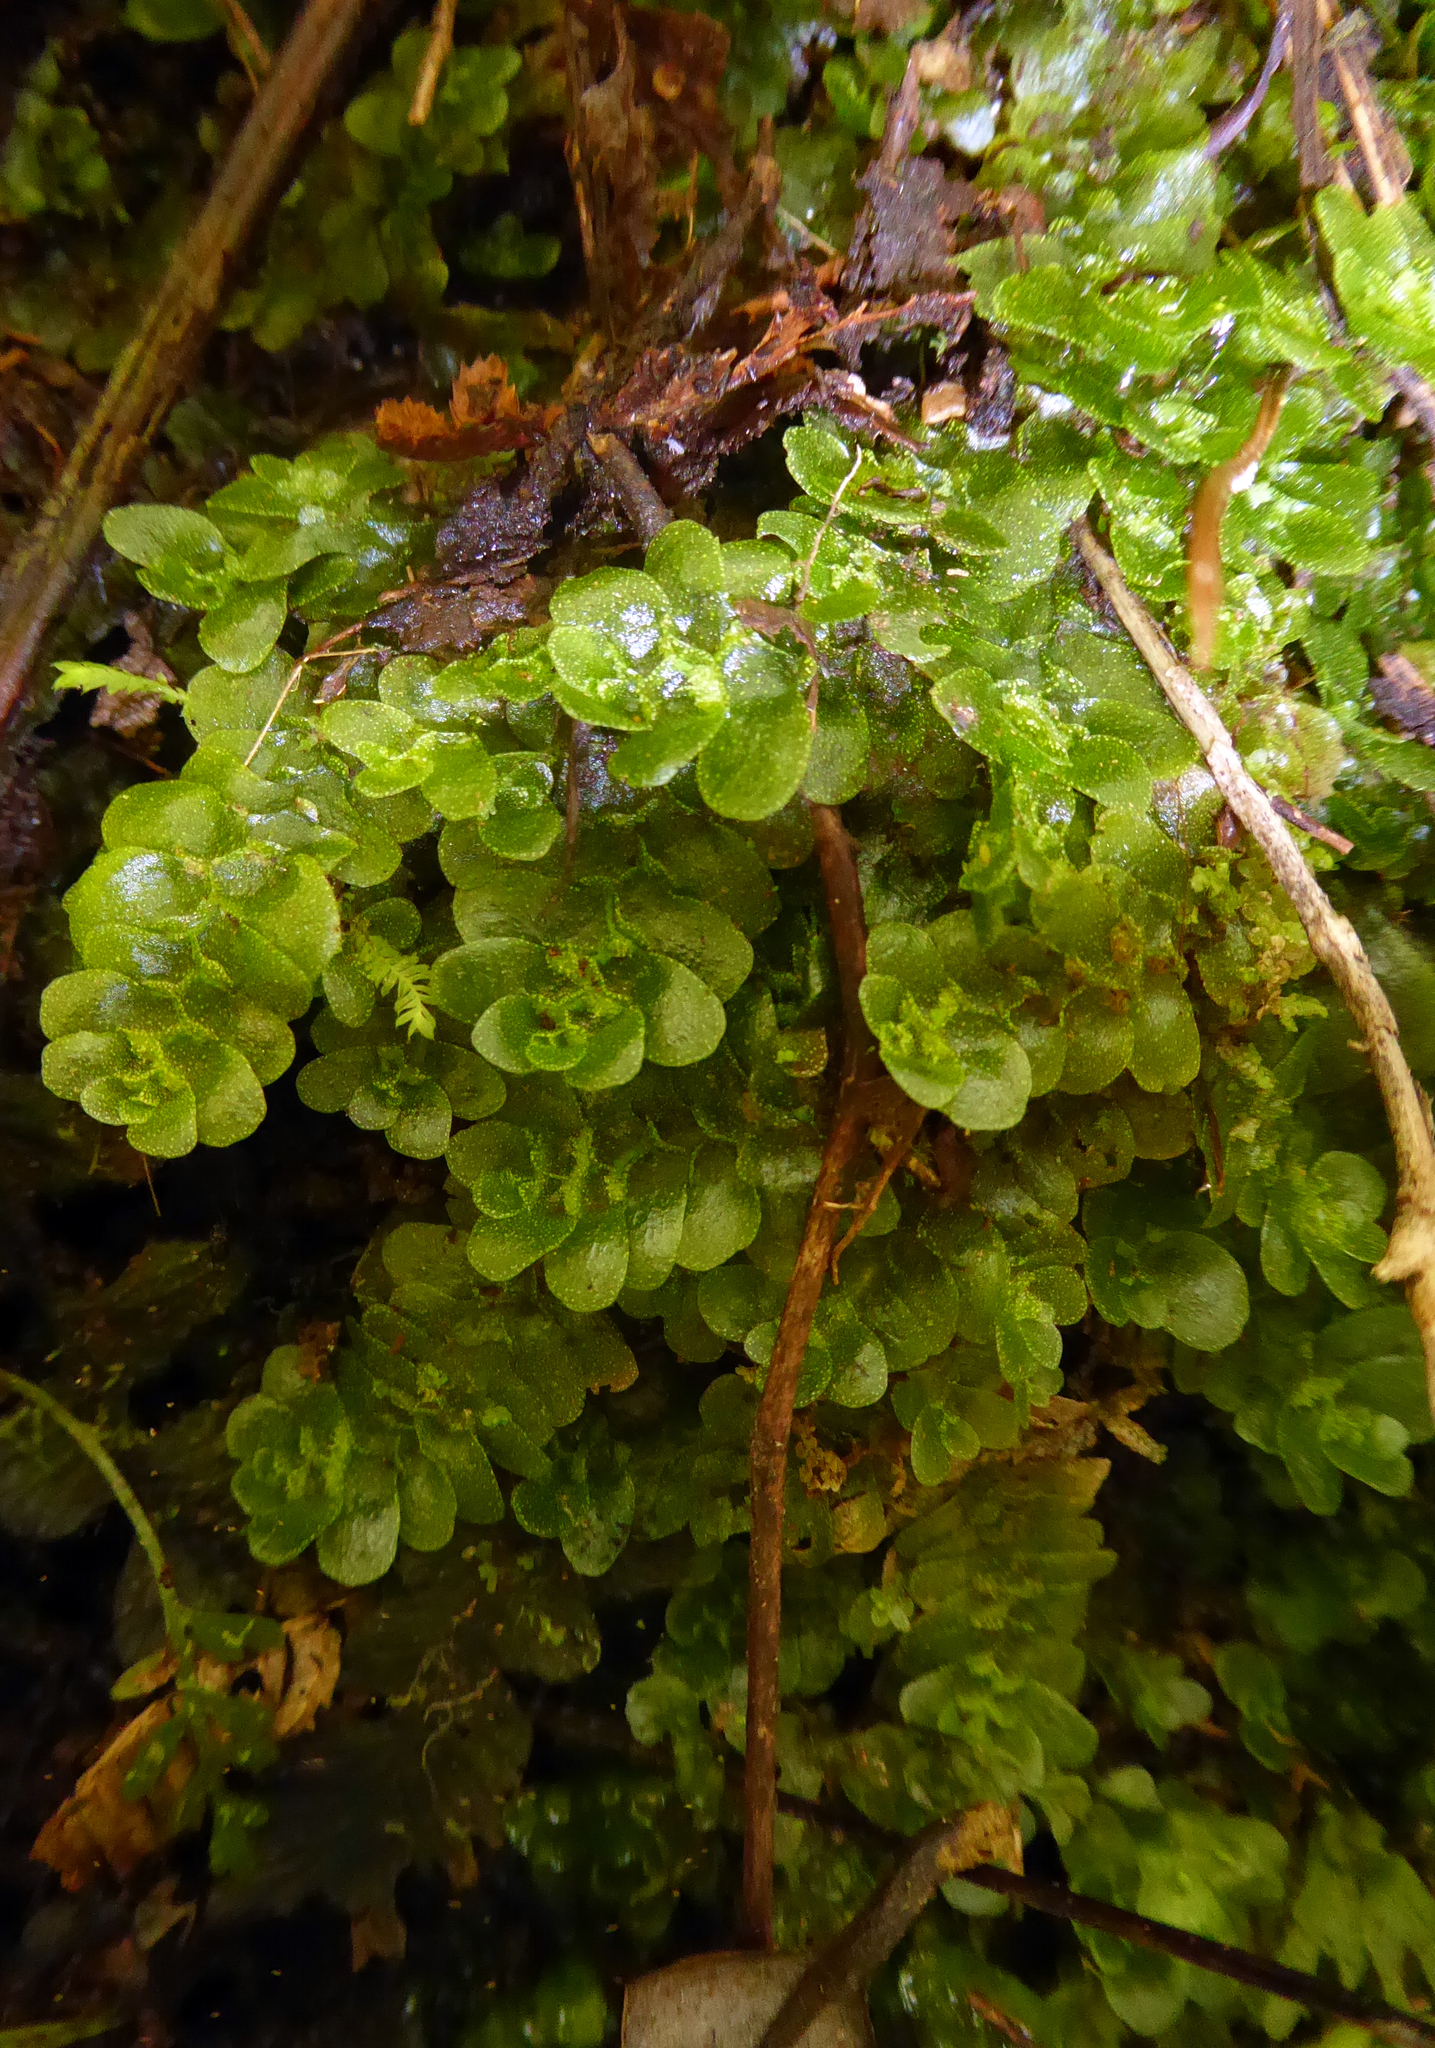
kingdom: Plantae
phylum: Marchantiophyta
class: Haplomitriopsida
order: Treubiales
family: Treubiaceae
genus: Treubia
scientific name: Treubia lacunosa
